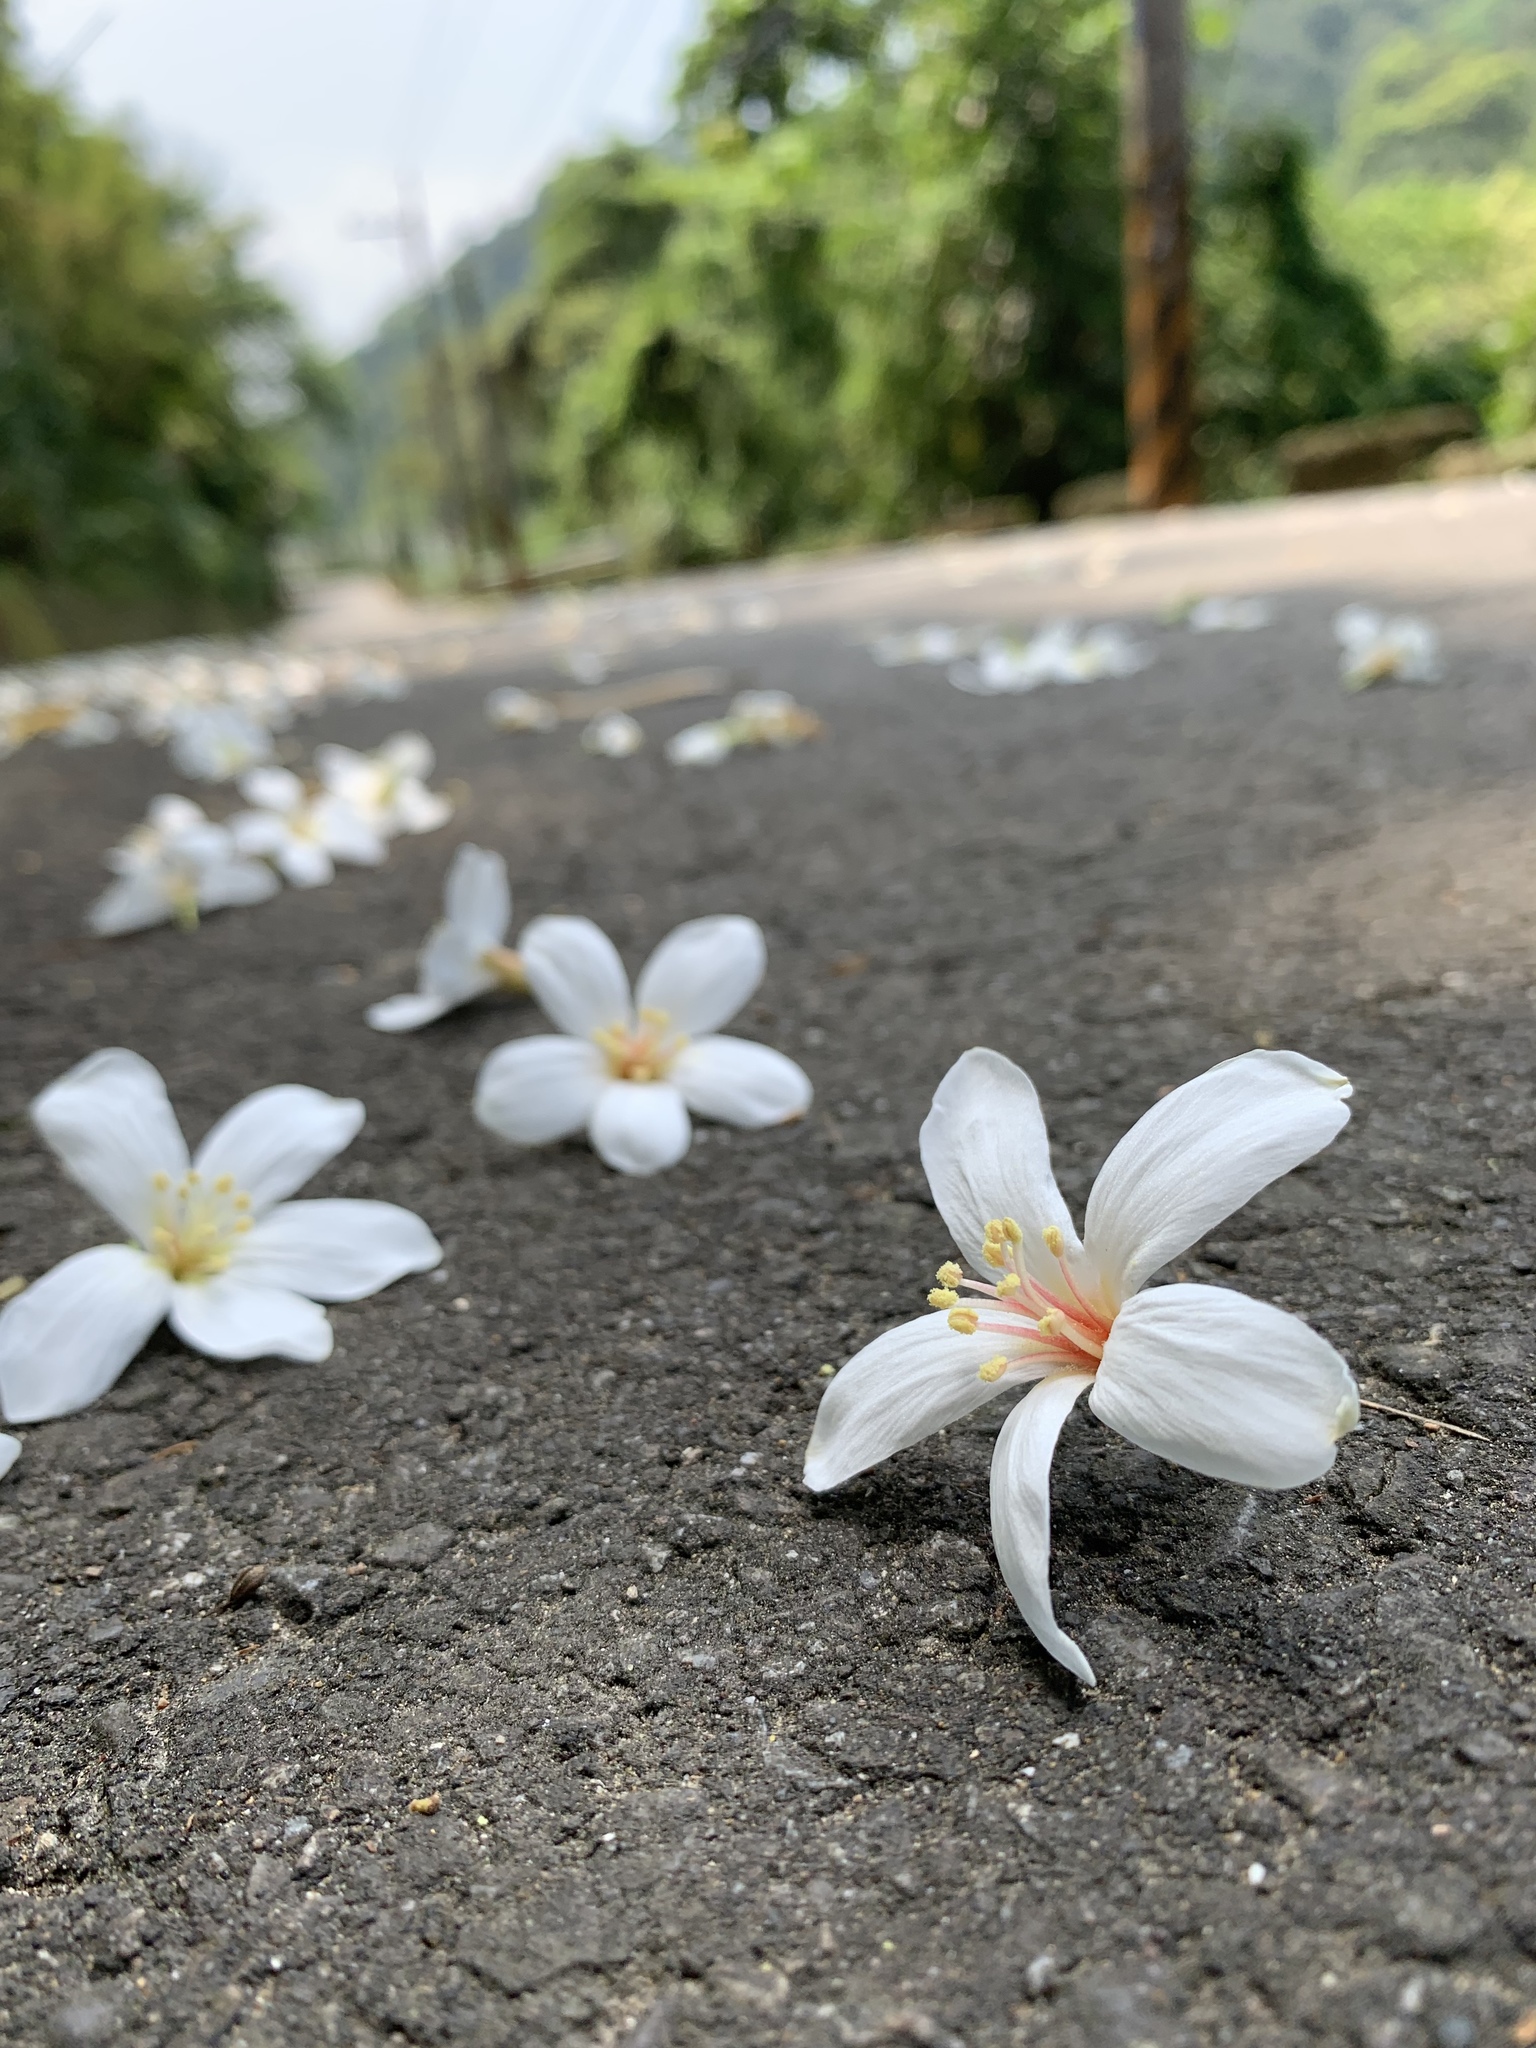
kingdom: Plantae
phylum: Tracheophyta
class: Magnoliopsida
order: Malpighiales
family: Euphorbiaceae
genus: Vernicia
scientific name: Vernicia montana
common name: Mu oil tree
